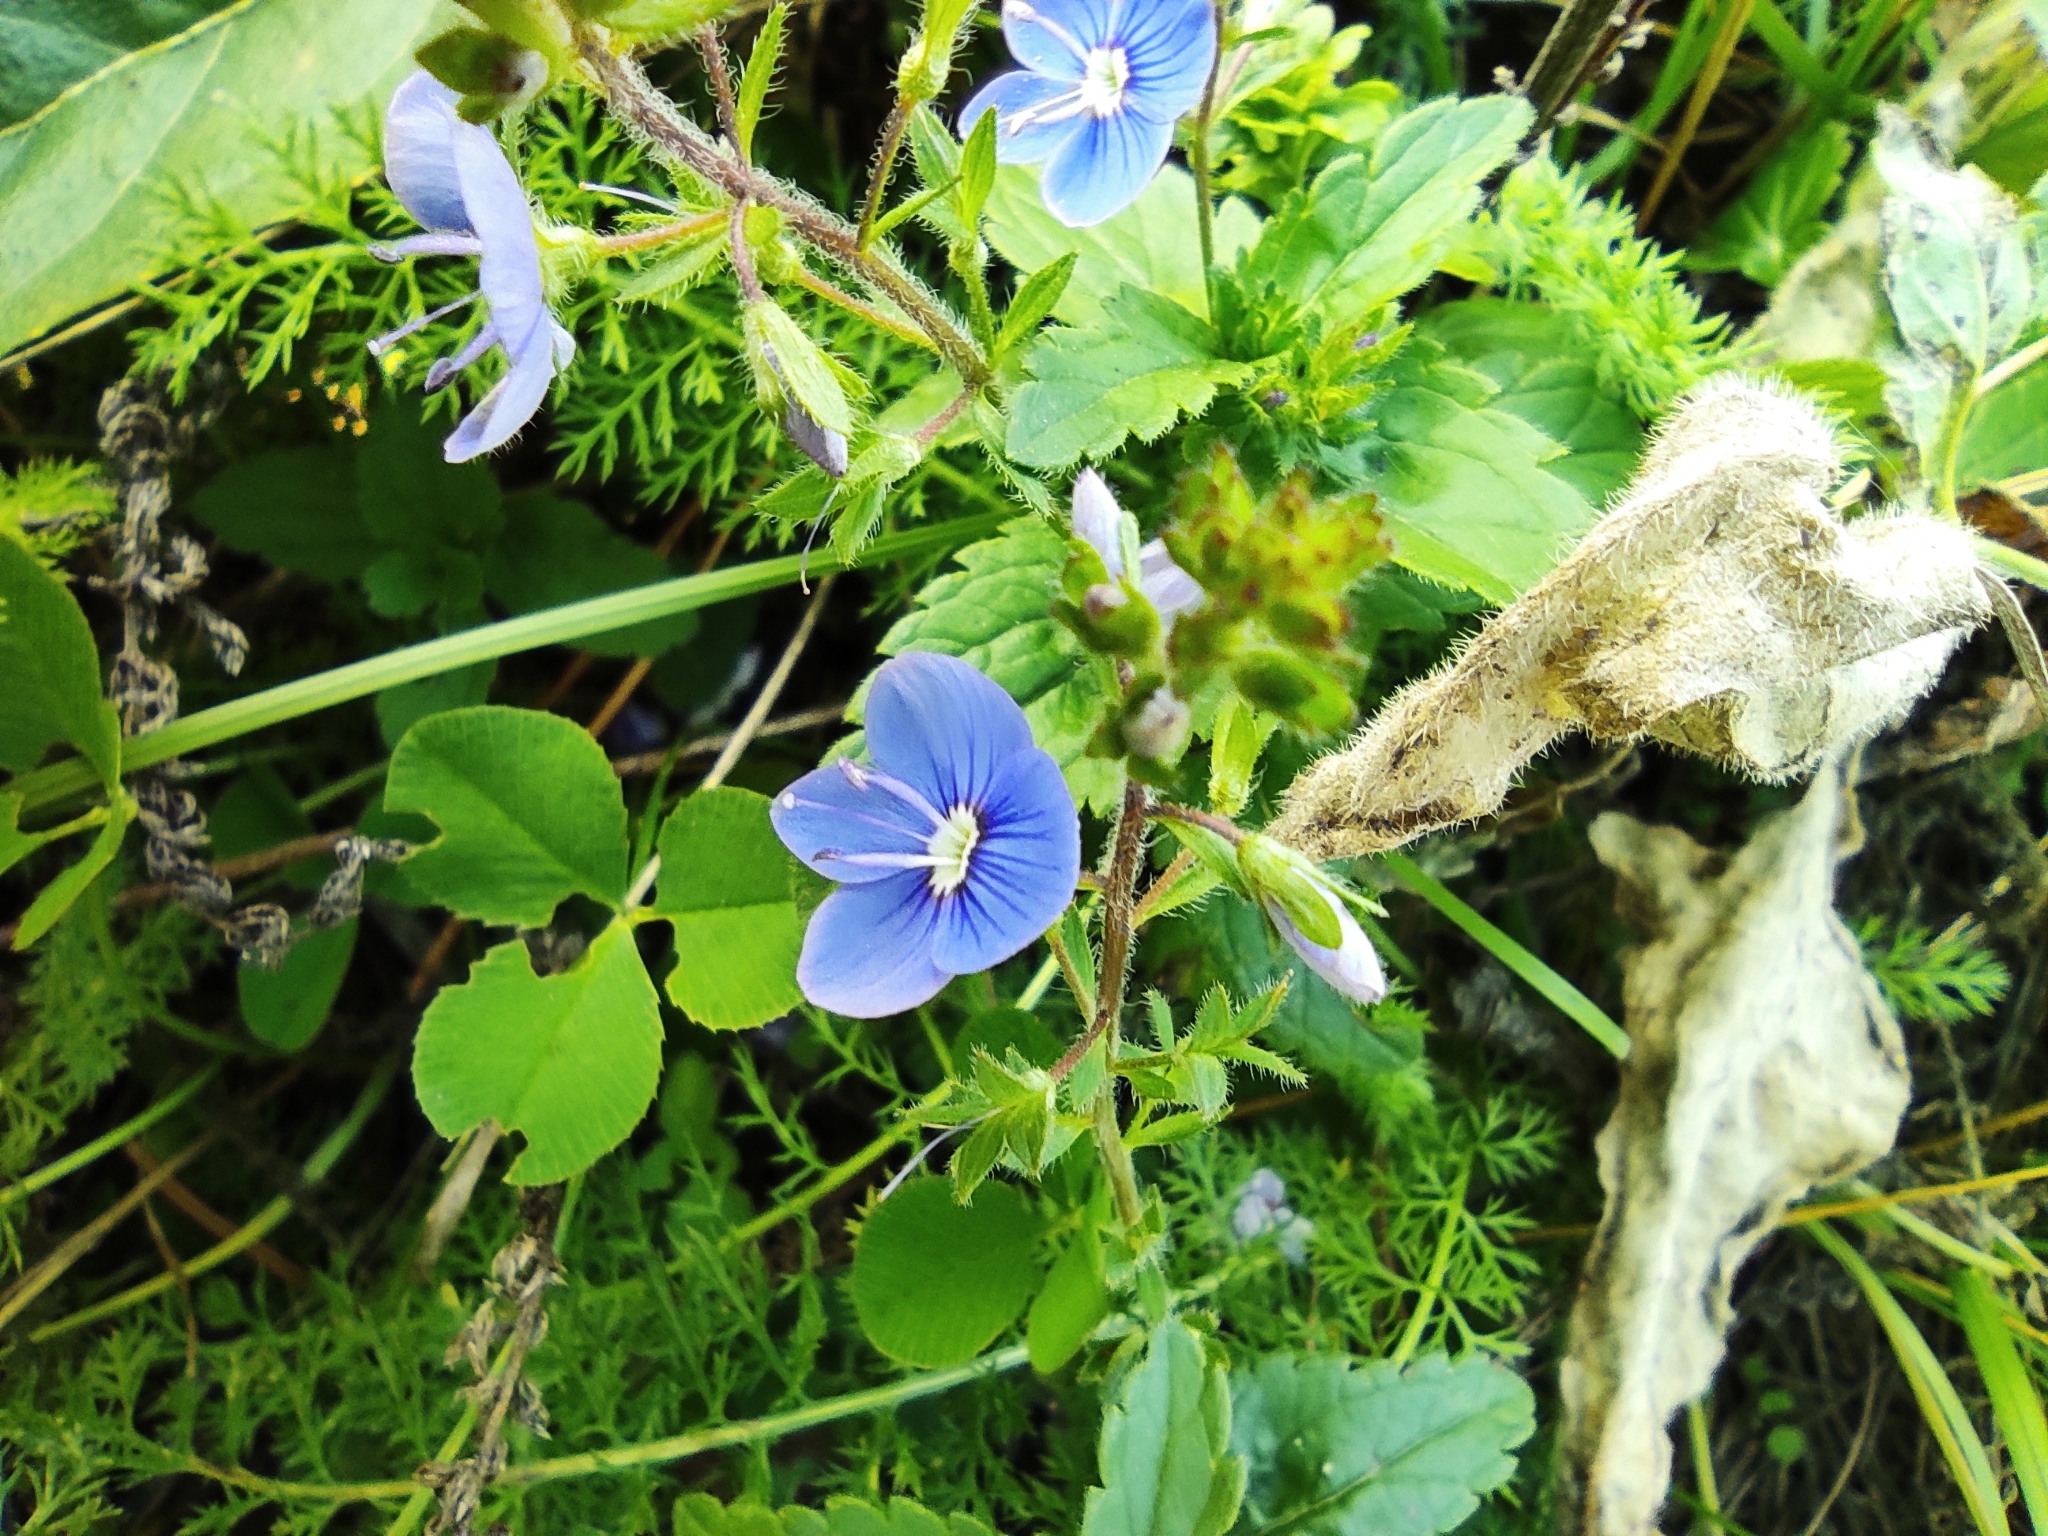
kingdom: Plantae
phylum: Tracheophyta
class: Magnoliopsida
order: Lamiales
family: Plantaginaceae
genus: Veronica
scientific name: Veronica chamaedrys
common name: Germander speedwell
